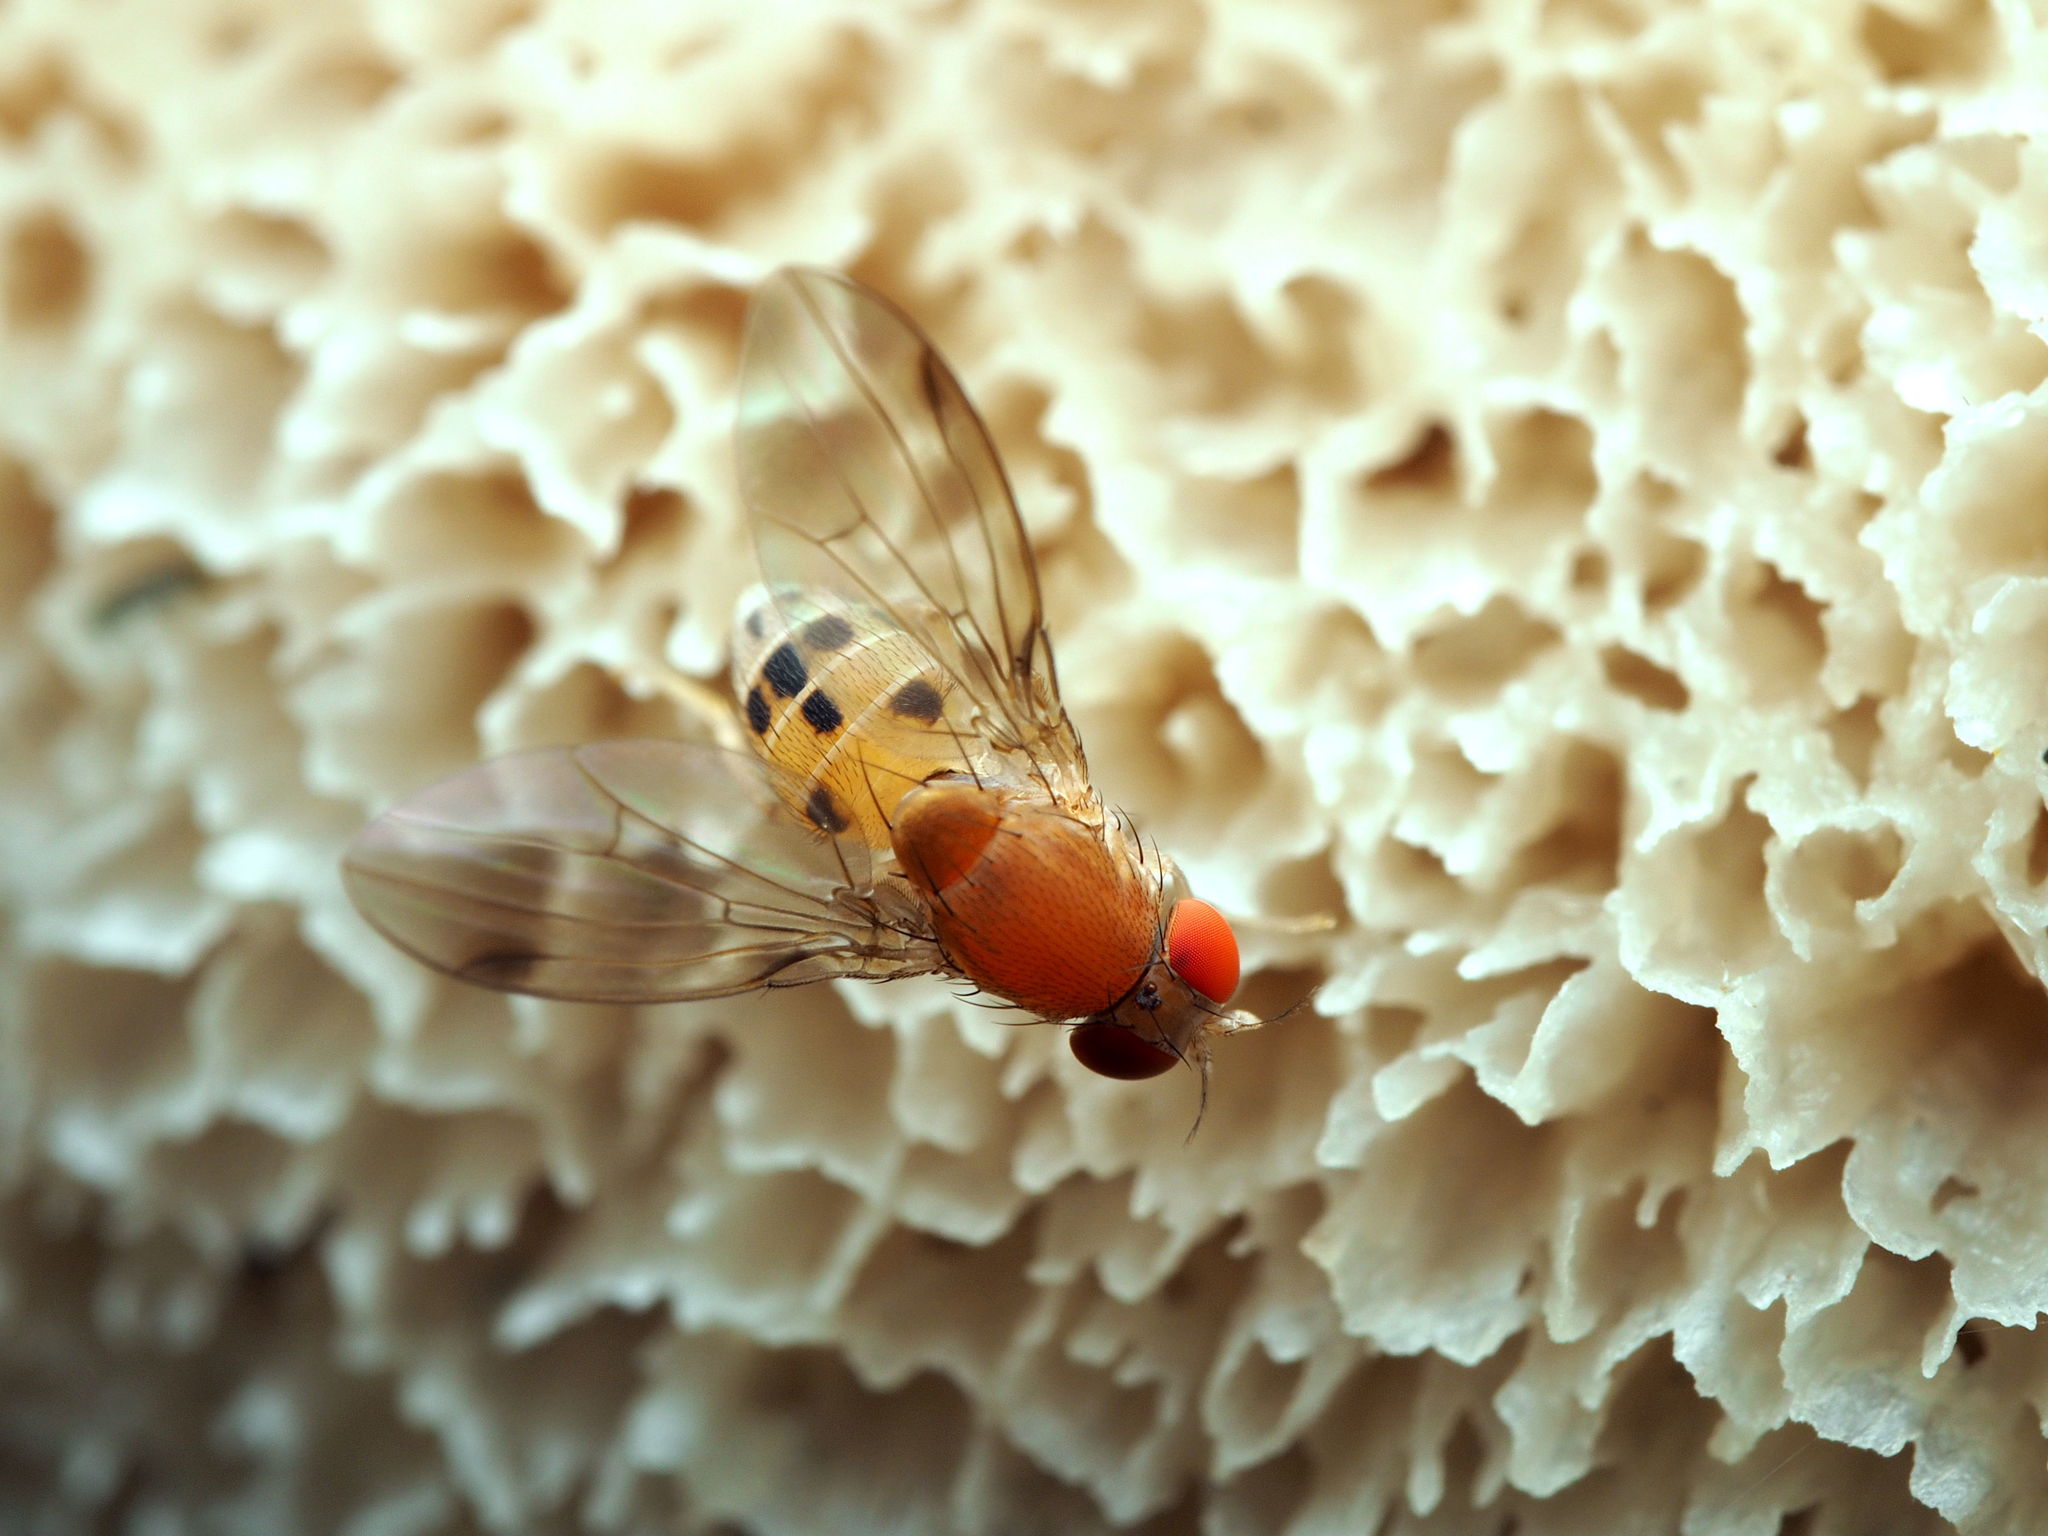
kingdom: Animalia
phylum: Arthropoda
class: Insecta
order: Diptera
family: Drosophilidae
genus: Leucophenga
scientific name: Leucophenga varia
